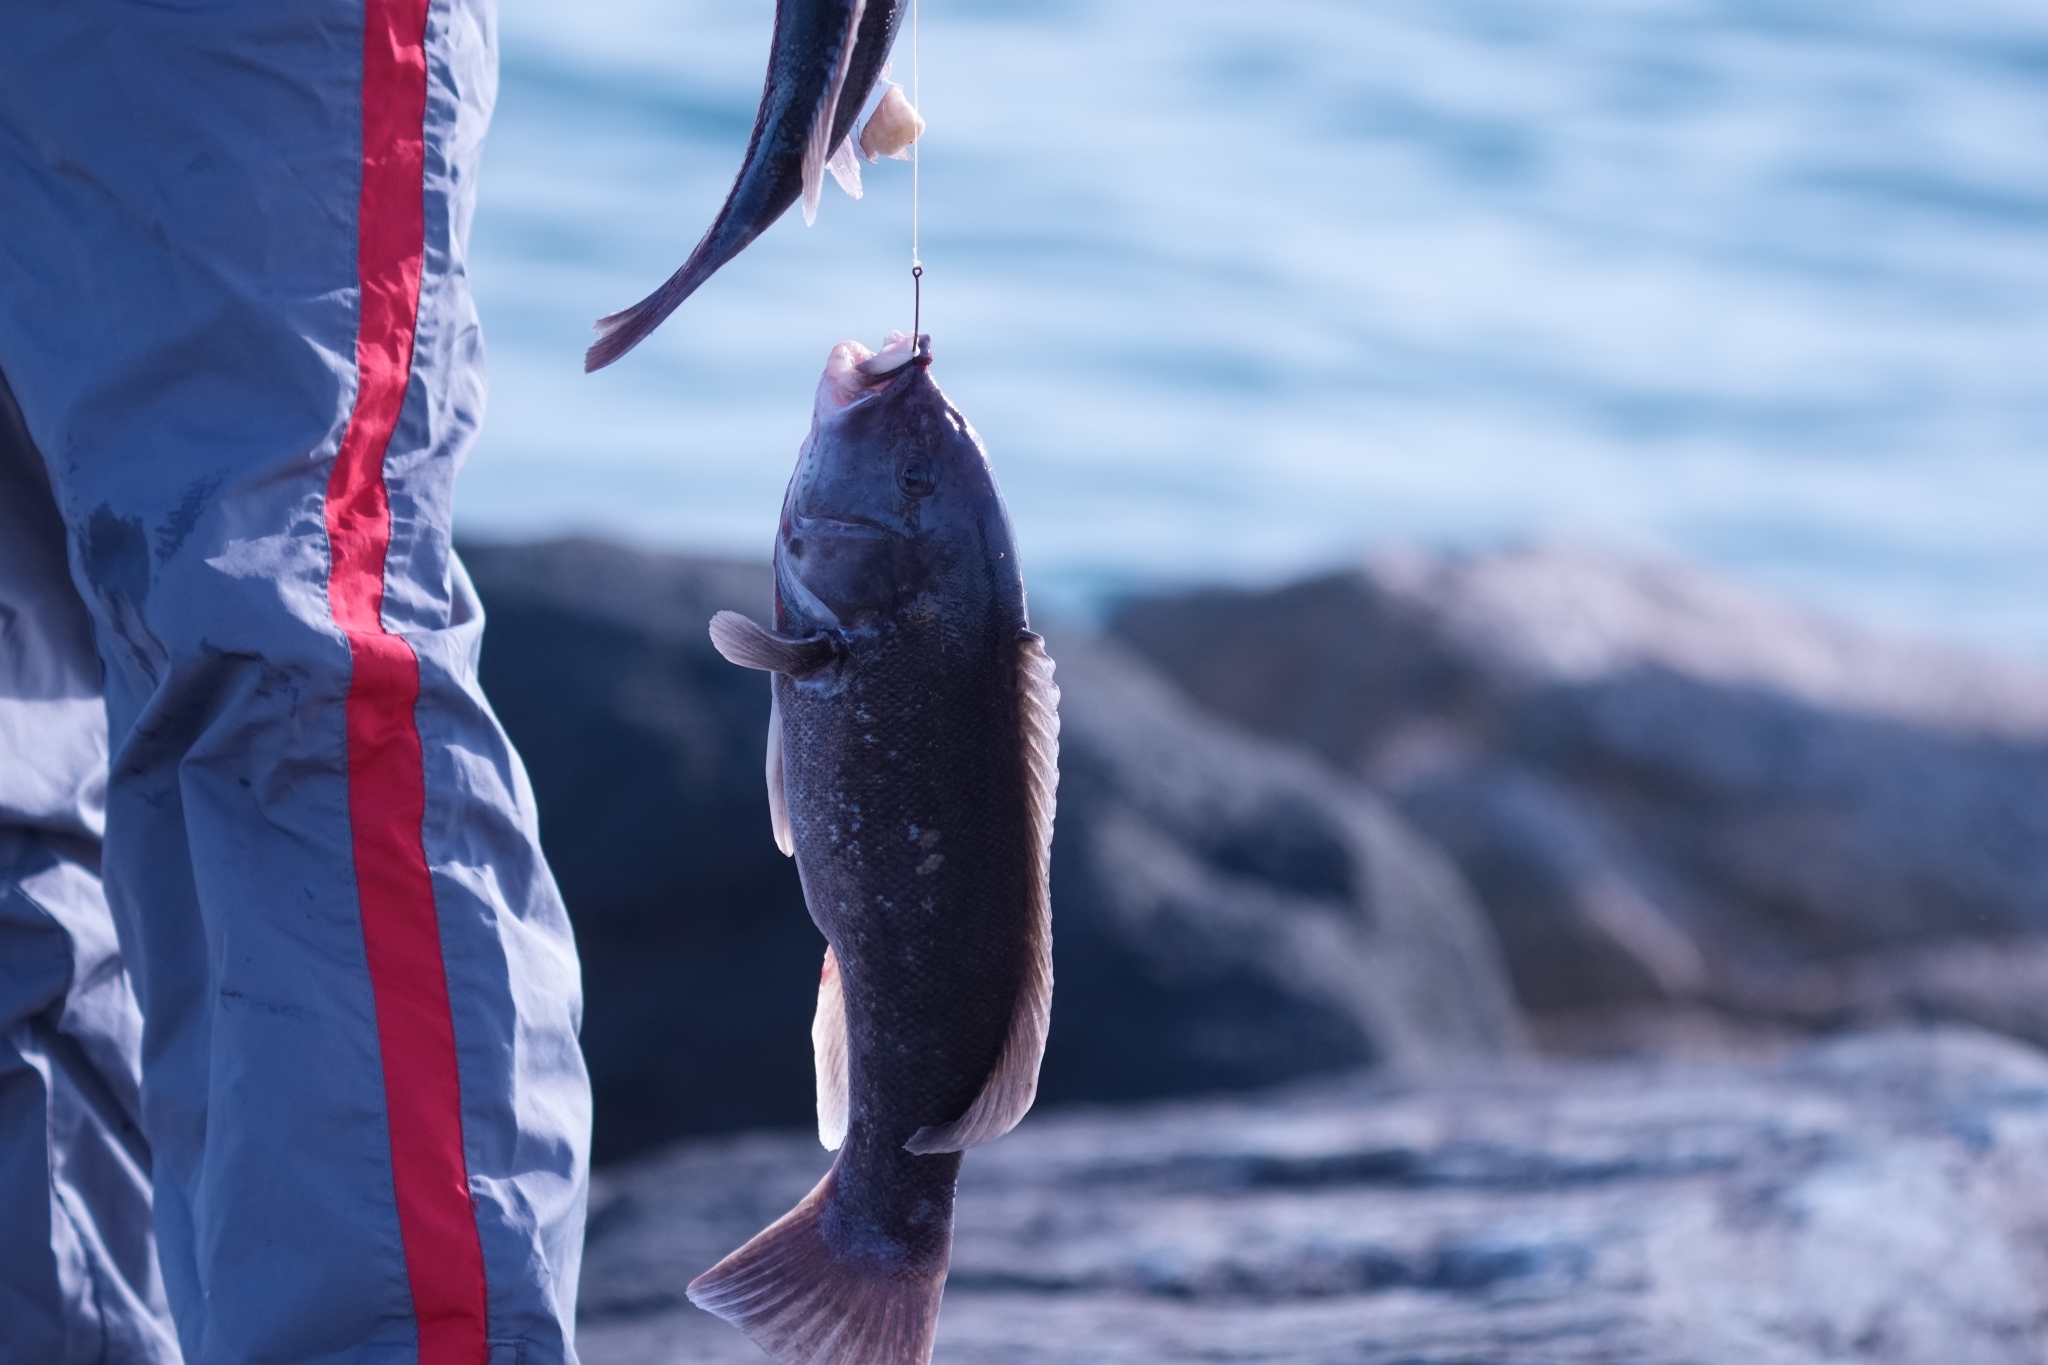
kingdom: Animalia
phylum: Chordata
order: Perciformes
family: Labridae
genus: Tautoga
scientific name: Tautoga onitis
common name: Tautog
